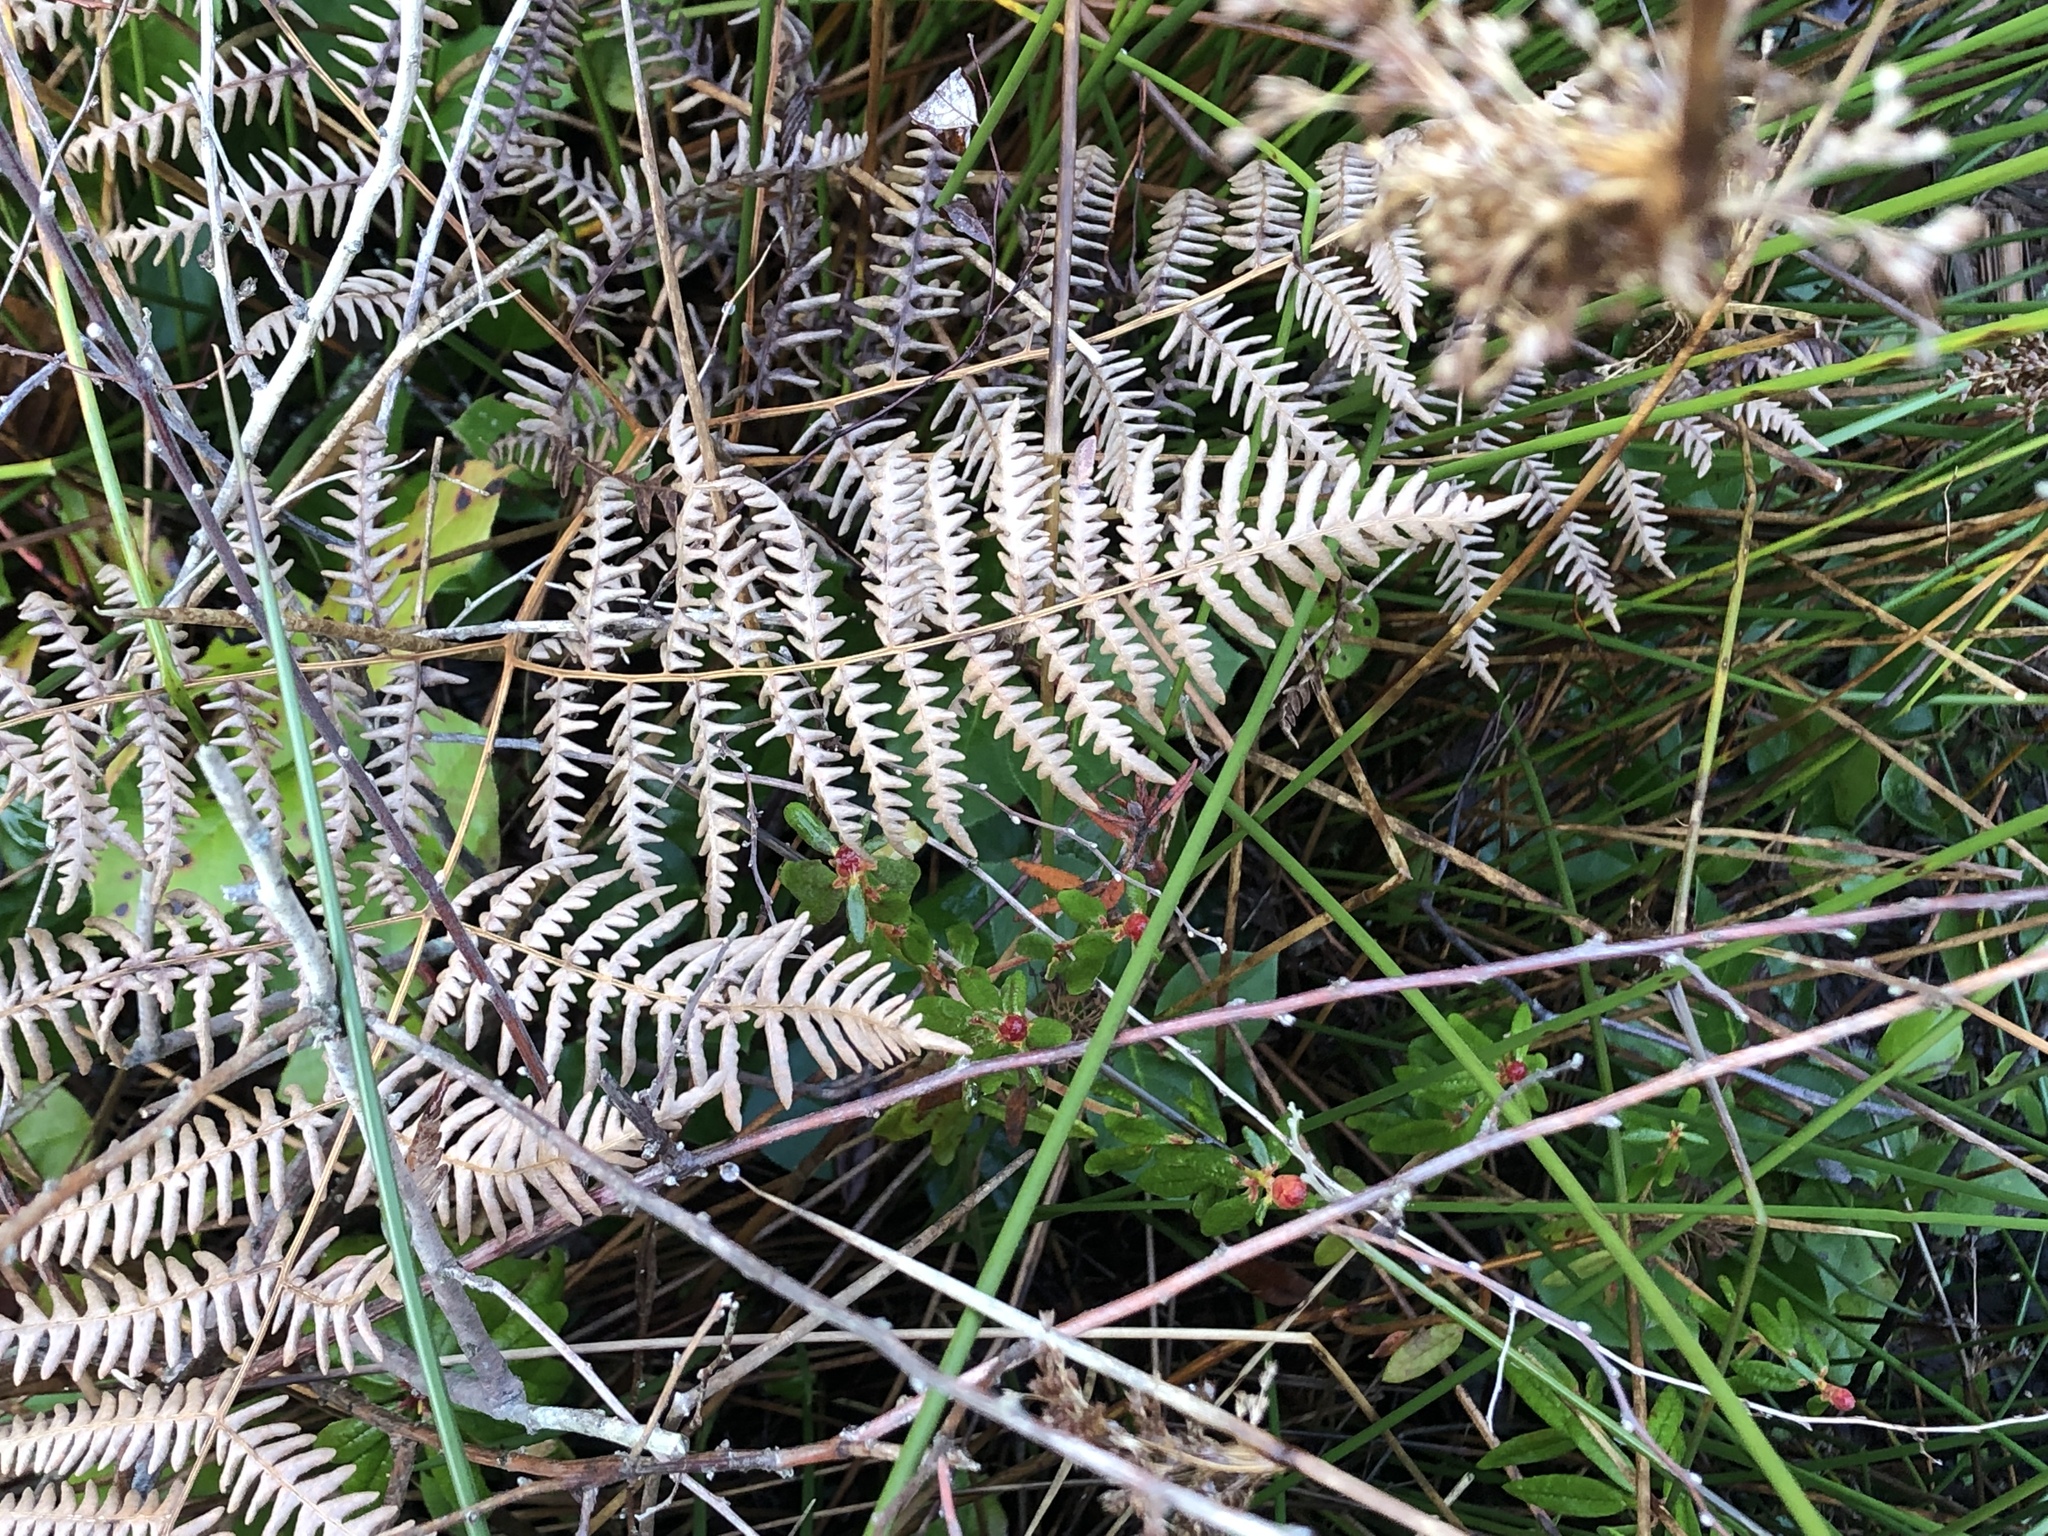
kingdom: Plantae
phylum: Tracheophyta
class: Polypodiopsida
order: Polypodiales
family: Dennstaedtiaceae
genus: Pteridium
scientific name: Pteridium aquilinum
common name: Bracken
